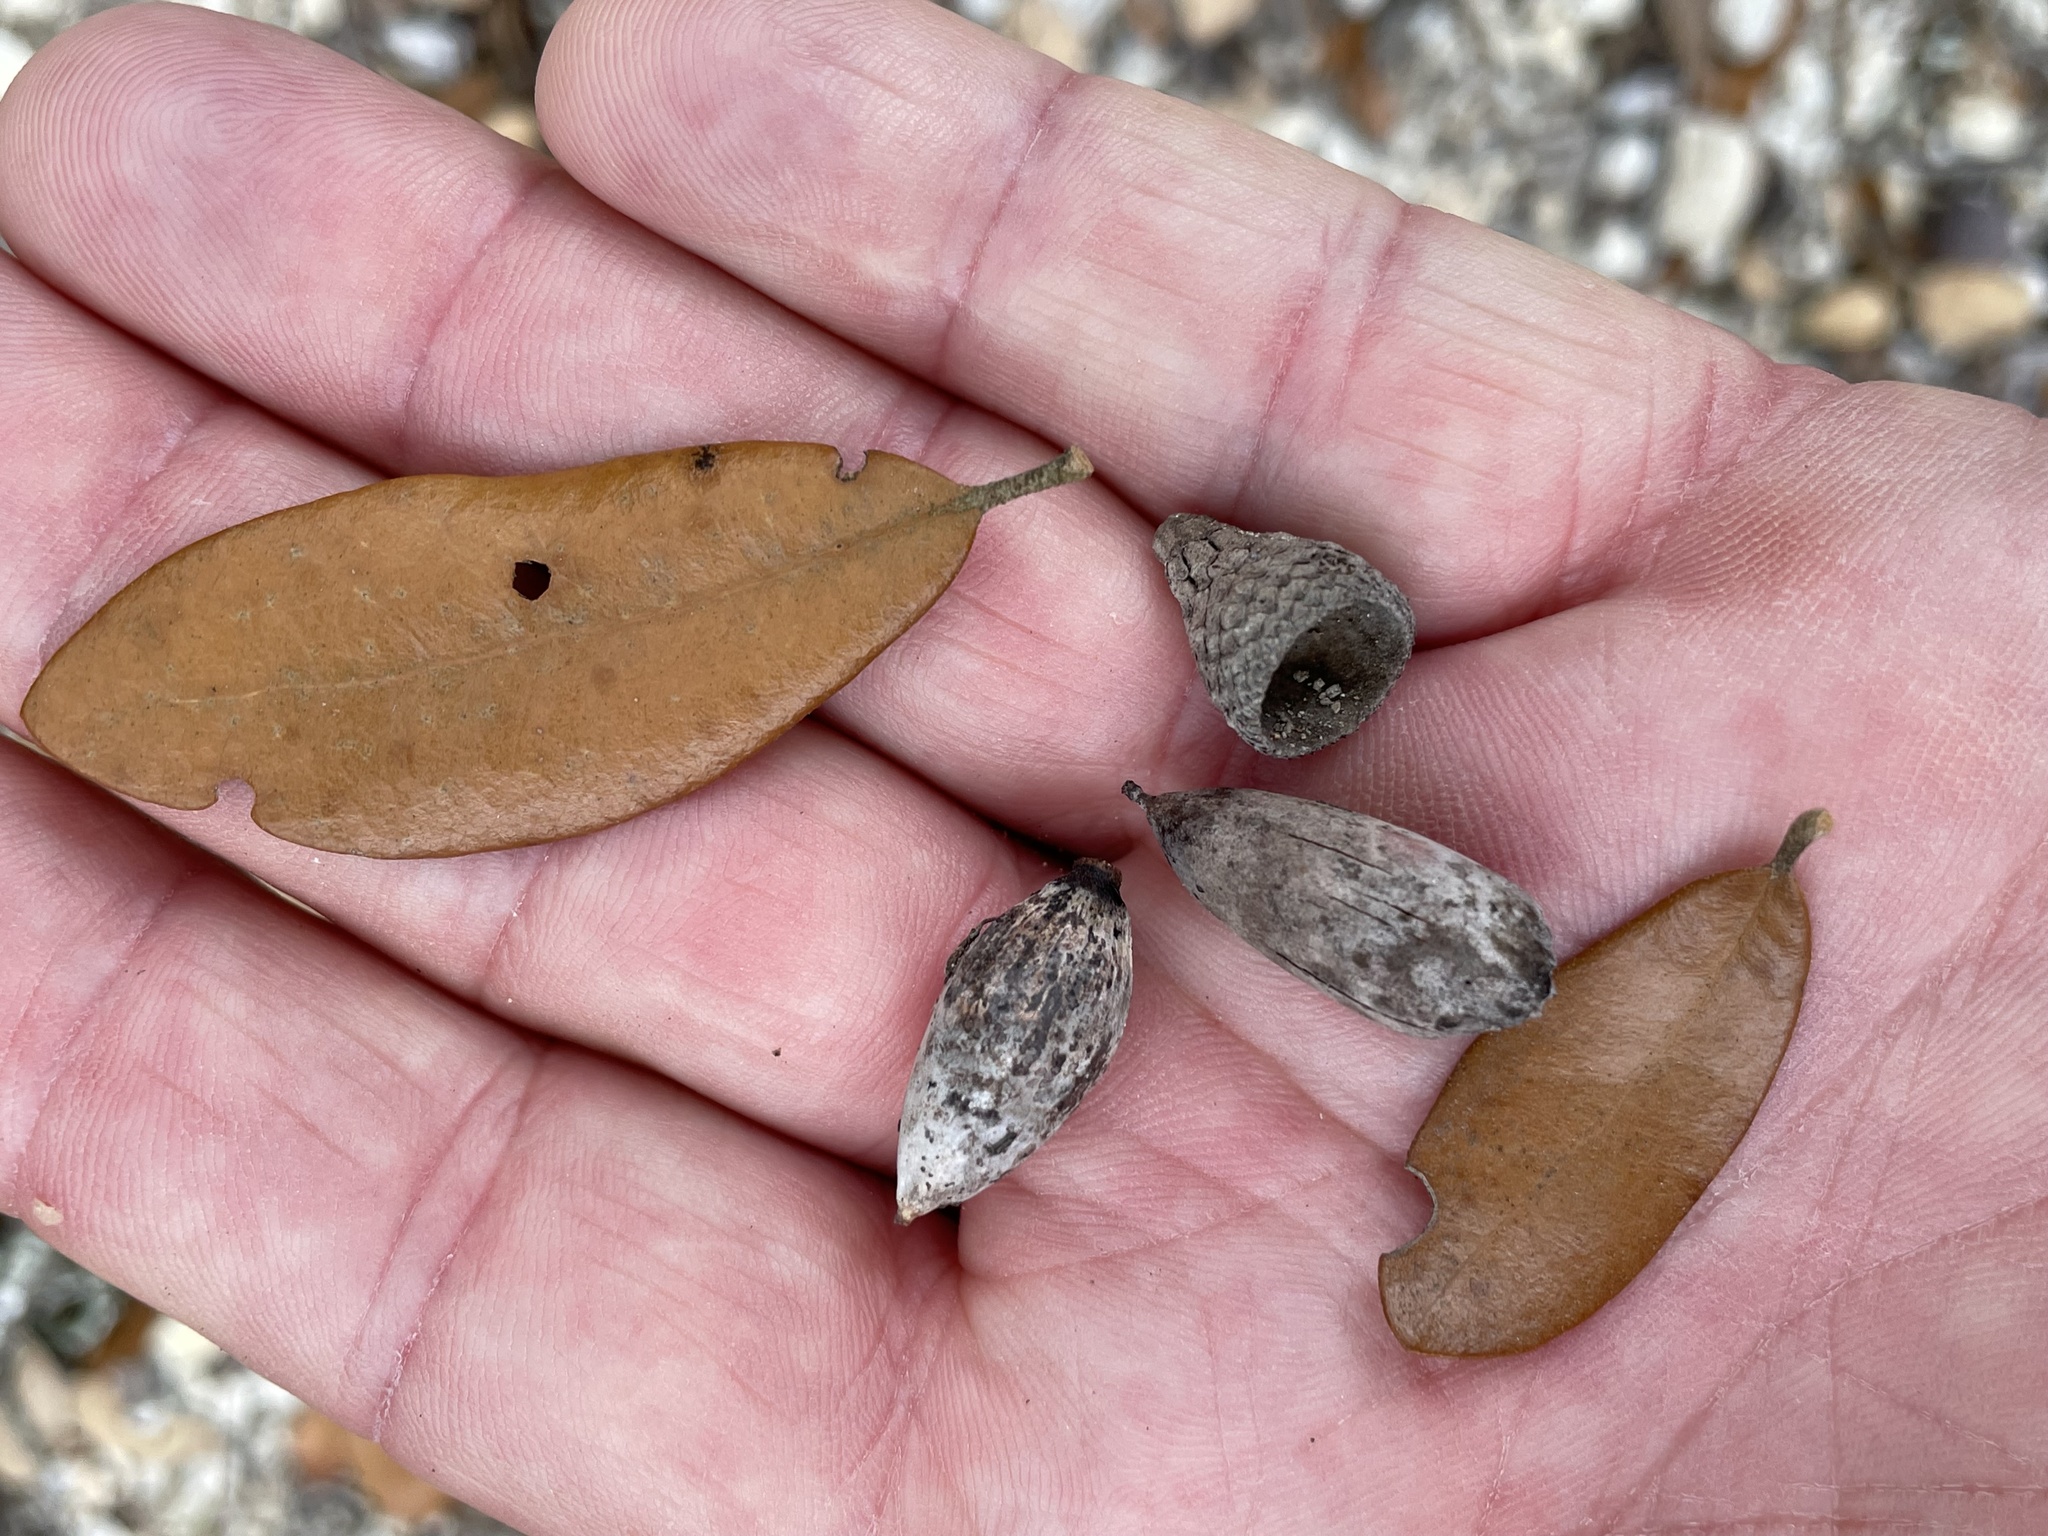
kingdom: Plantae
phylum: Tracheophyta
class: Magnoliopsida
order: Fagales
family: Fagaceae
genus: Quercus
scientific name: Quercus fusiformis
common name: Texas live oak
